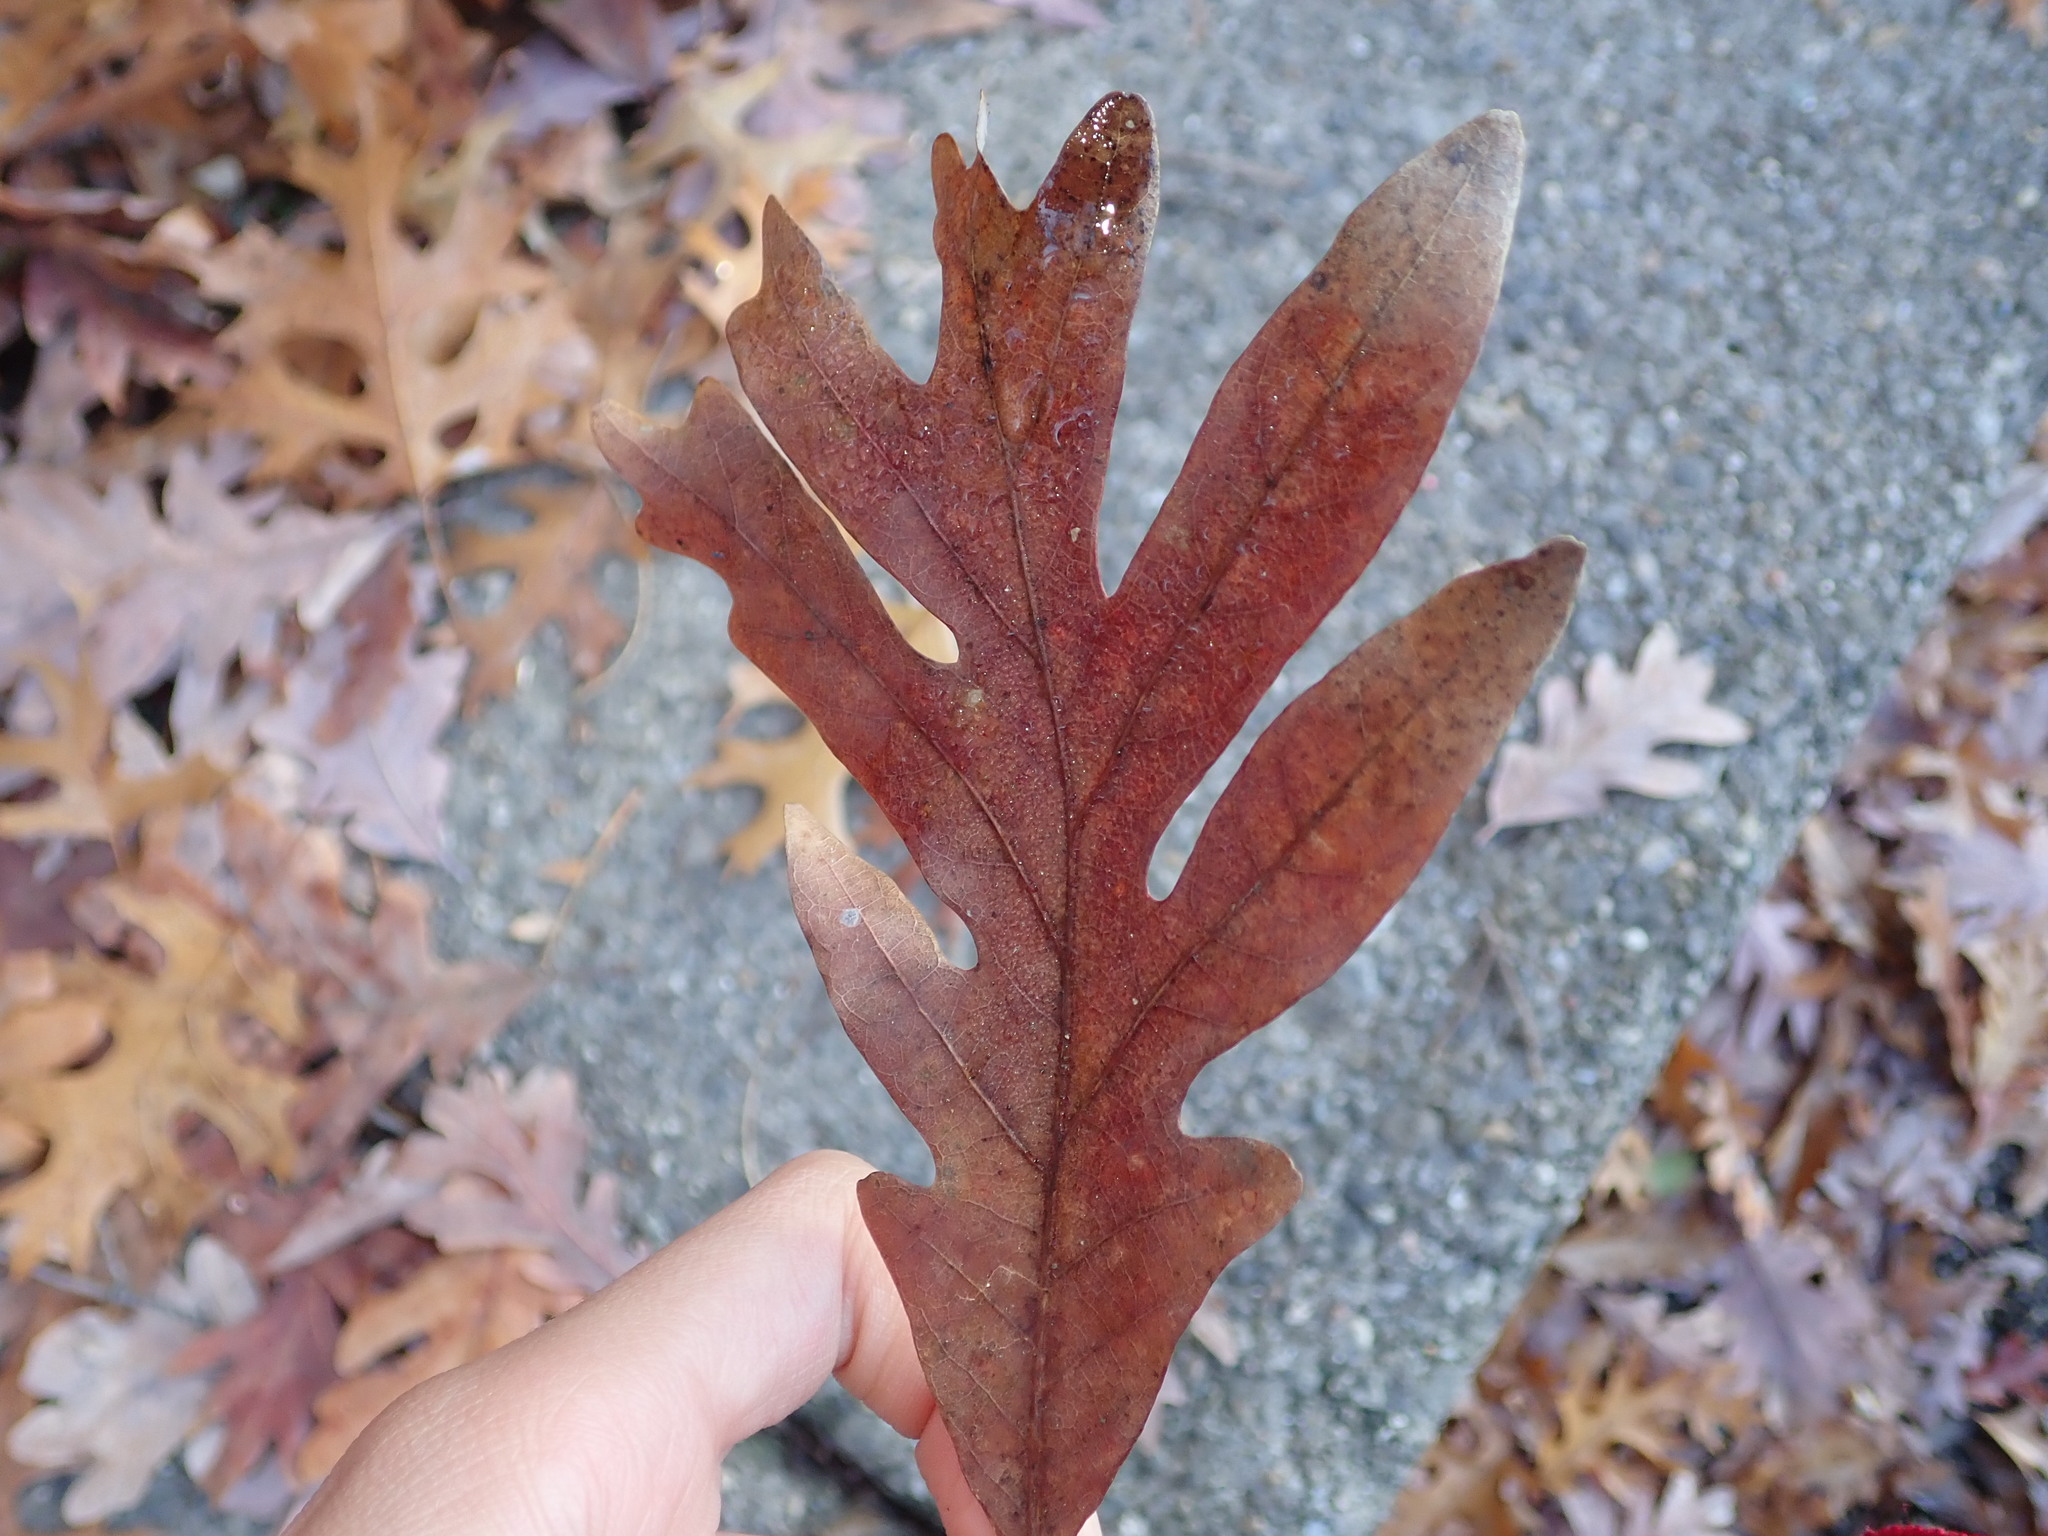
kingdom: Plantae
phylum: Tracheophyta
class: Magnoliopsida
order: Fagales
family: Fagaceae
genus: Quercus
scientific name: Quercus alba
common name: White oak
